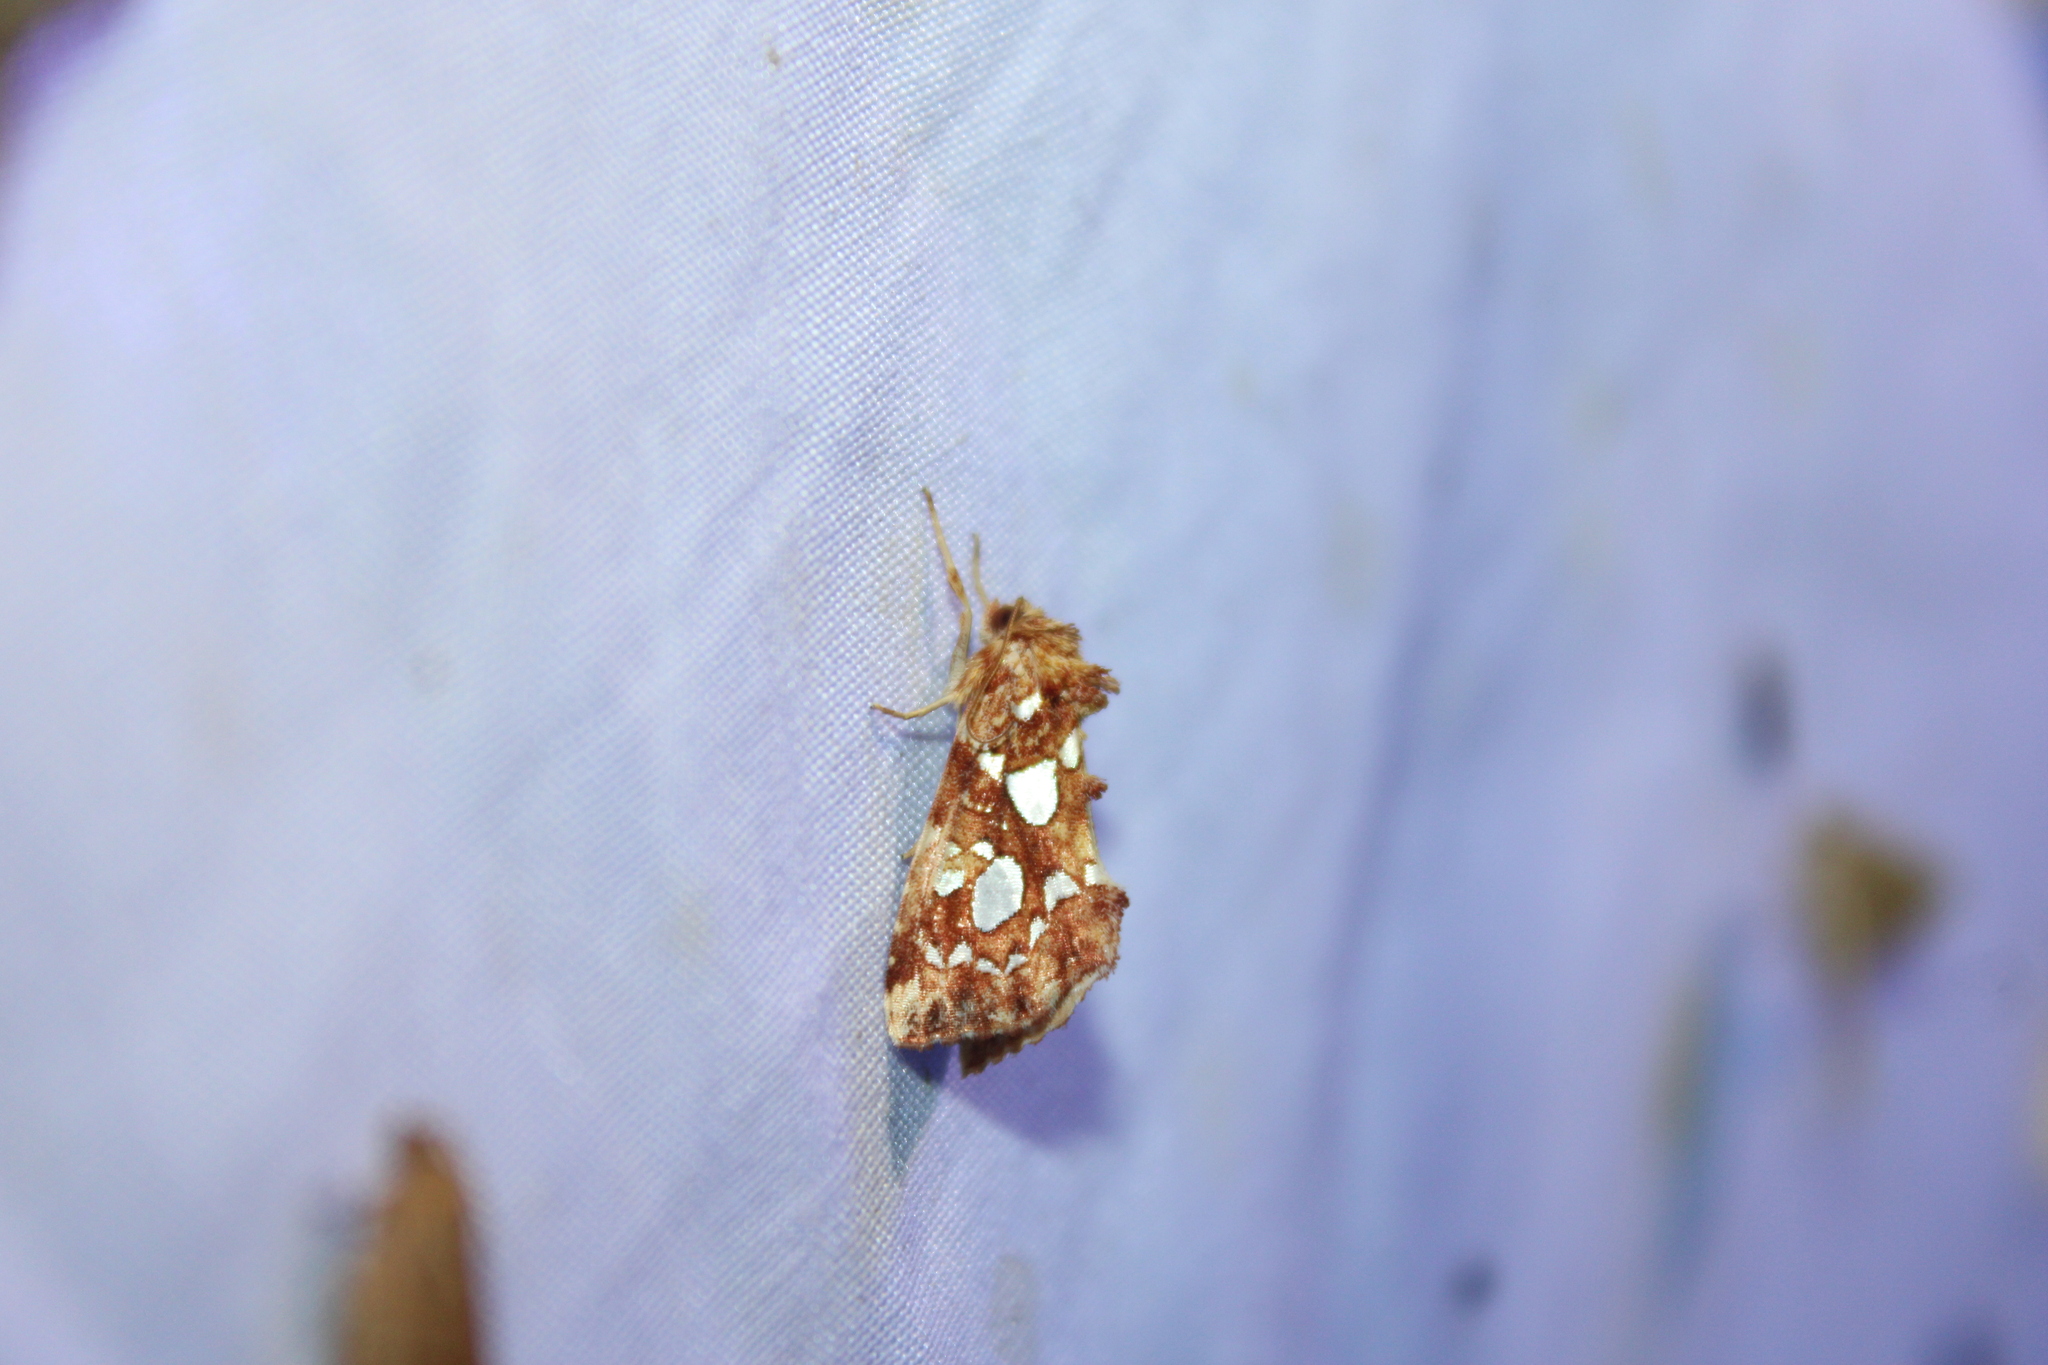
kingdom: Animalia
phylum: Arthropoda
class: Insecta
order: Lepidoptera
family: Noctuidae
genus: Callopistria
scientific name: Callopistria cordata
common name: Silver-spotted fern moth
